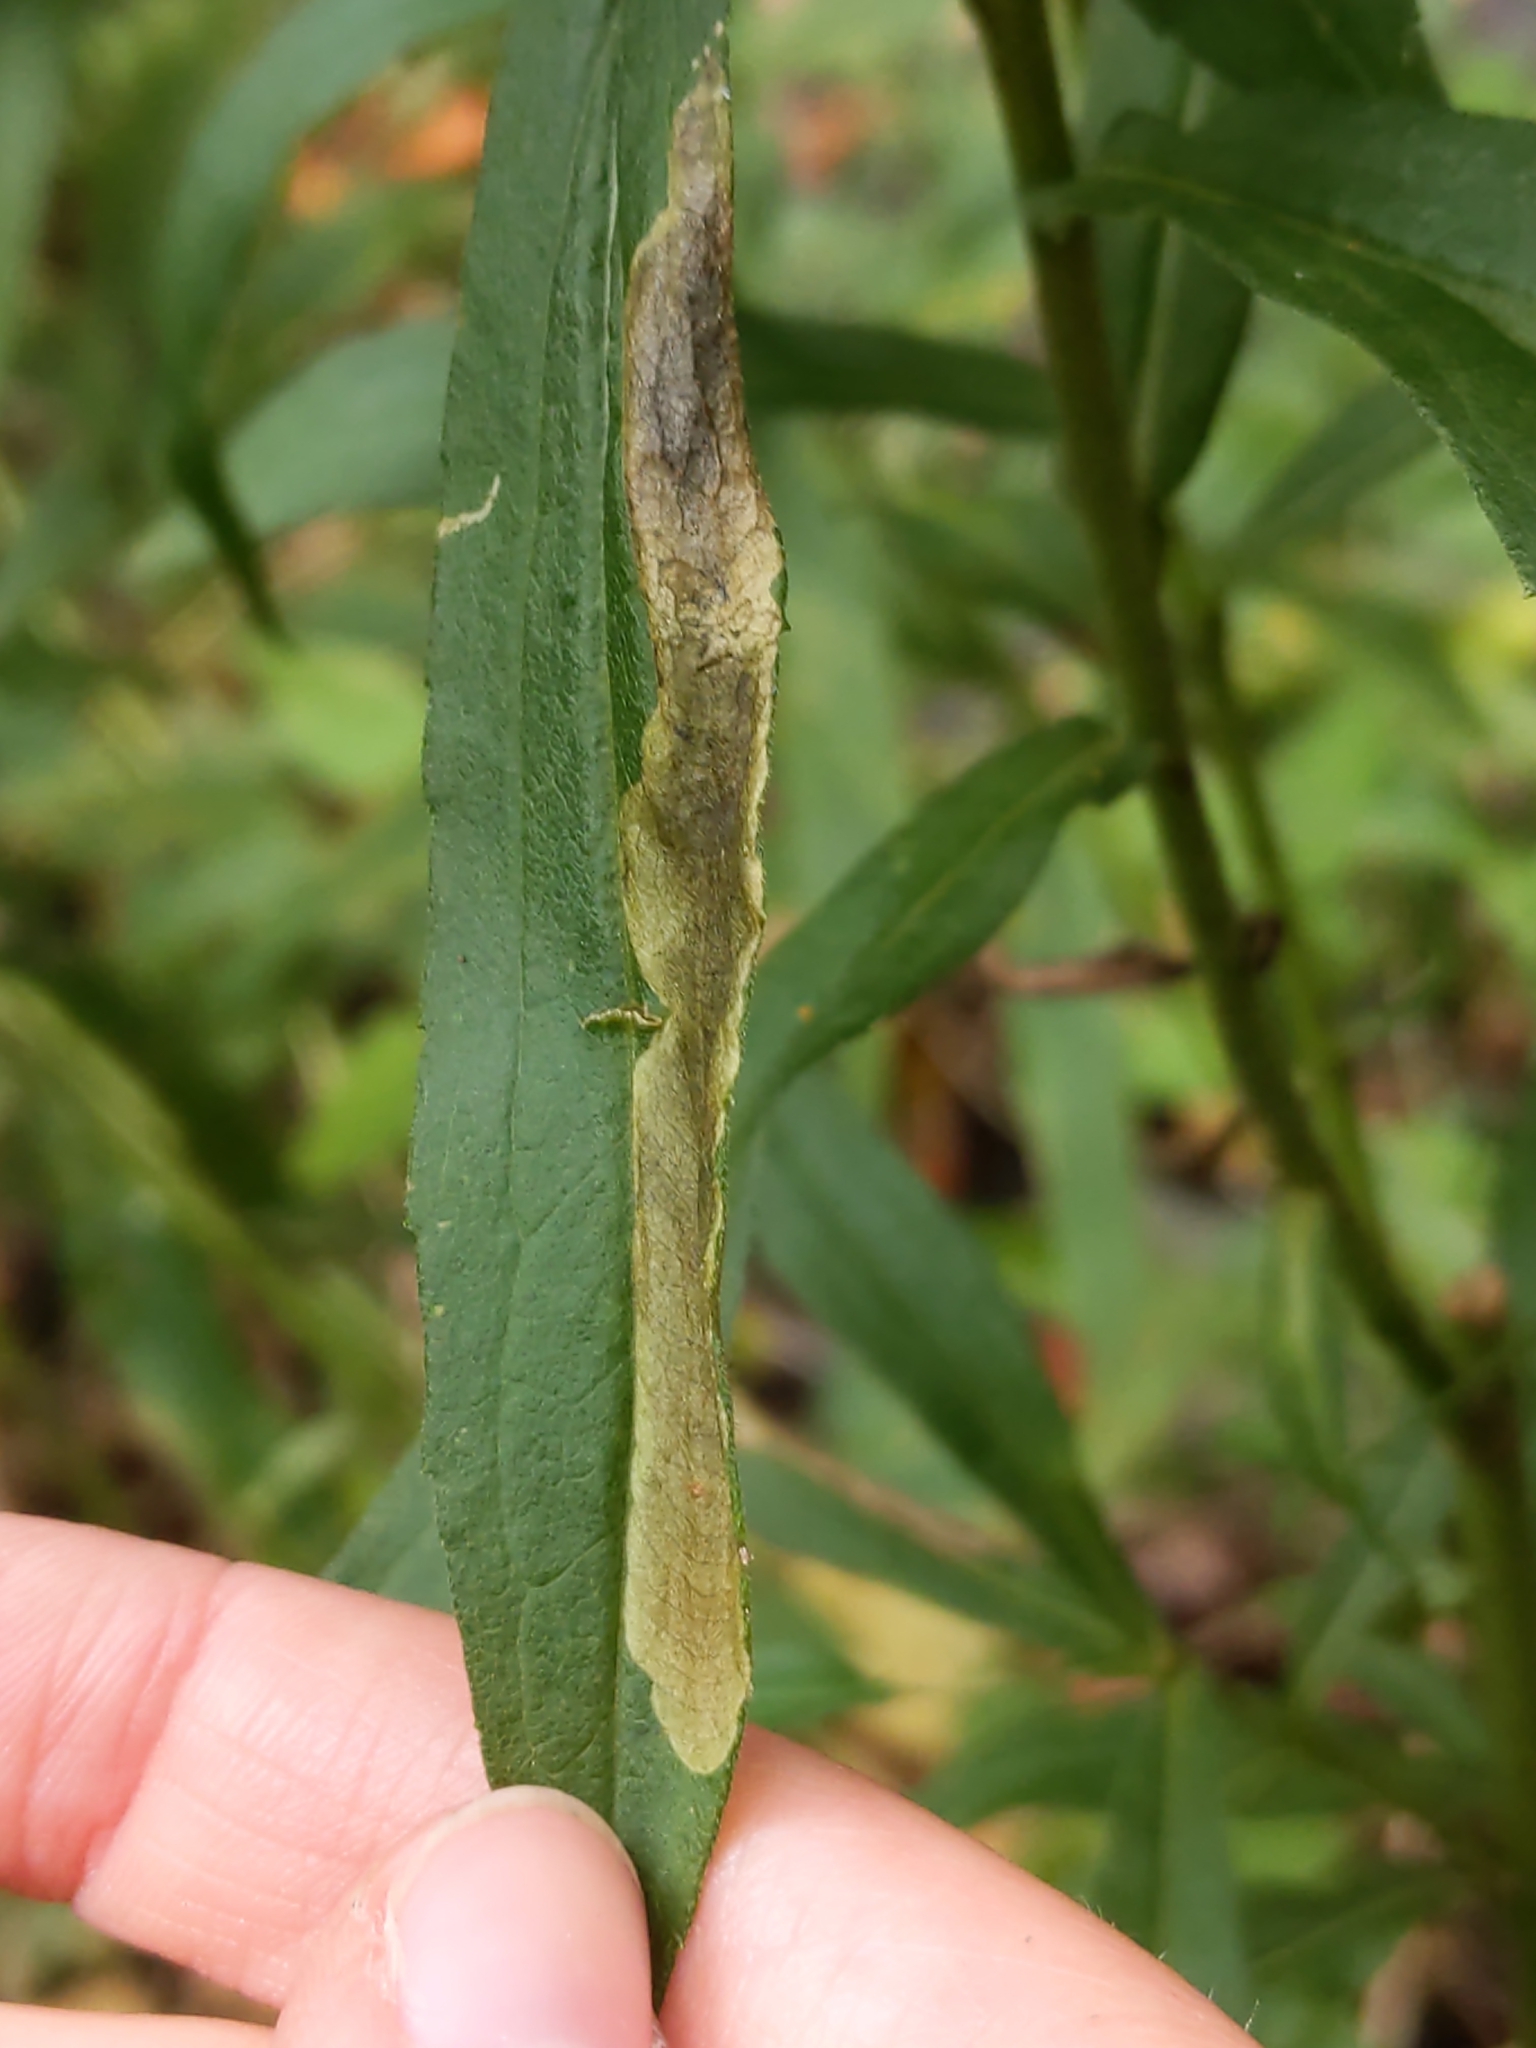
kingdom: Animalia
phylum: Arthropoda
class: Insecta
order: Diptera
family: Agromyzidae
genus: Nemorimyza
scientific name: Nemorimyza posticata
